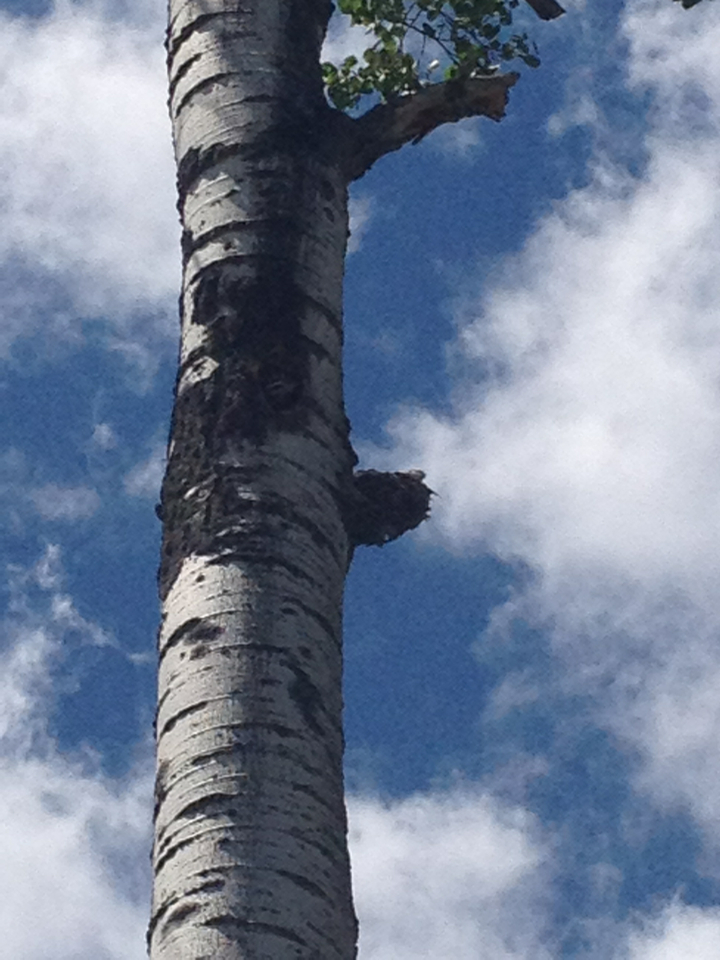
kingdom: Animalia
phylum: Chordata
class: Aves
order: Piciformes
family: Picidae
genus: Dryocopus
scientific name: Dryocopus pileatus
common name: Pileated woodpecker
